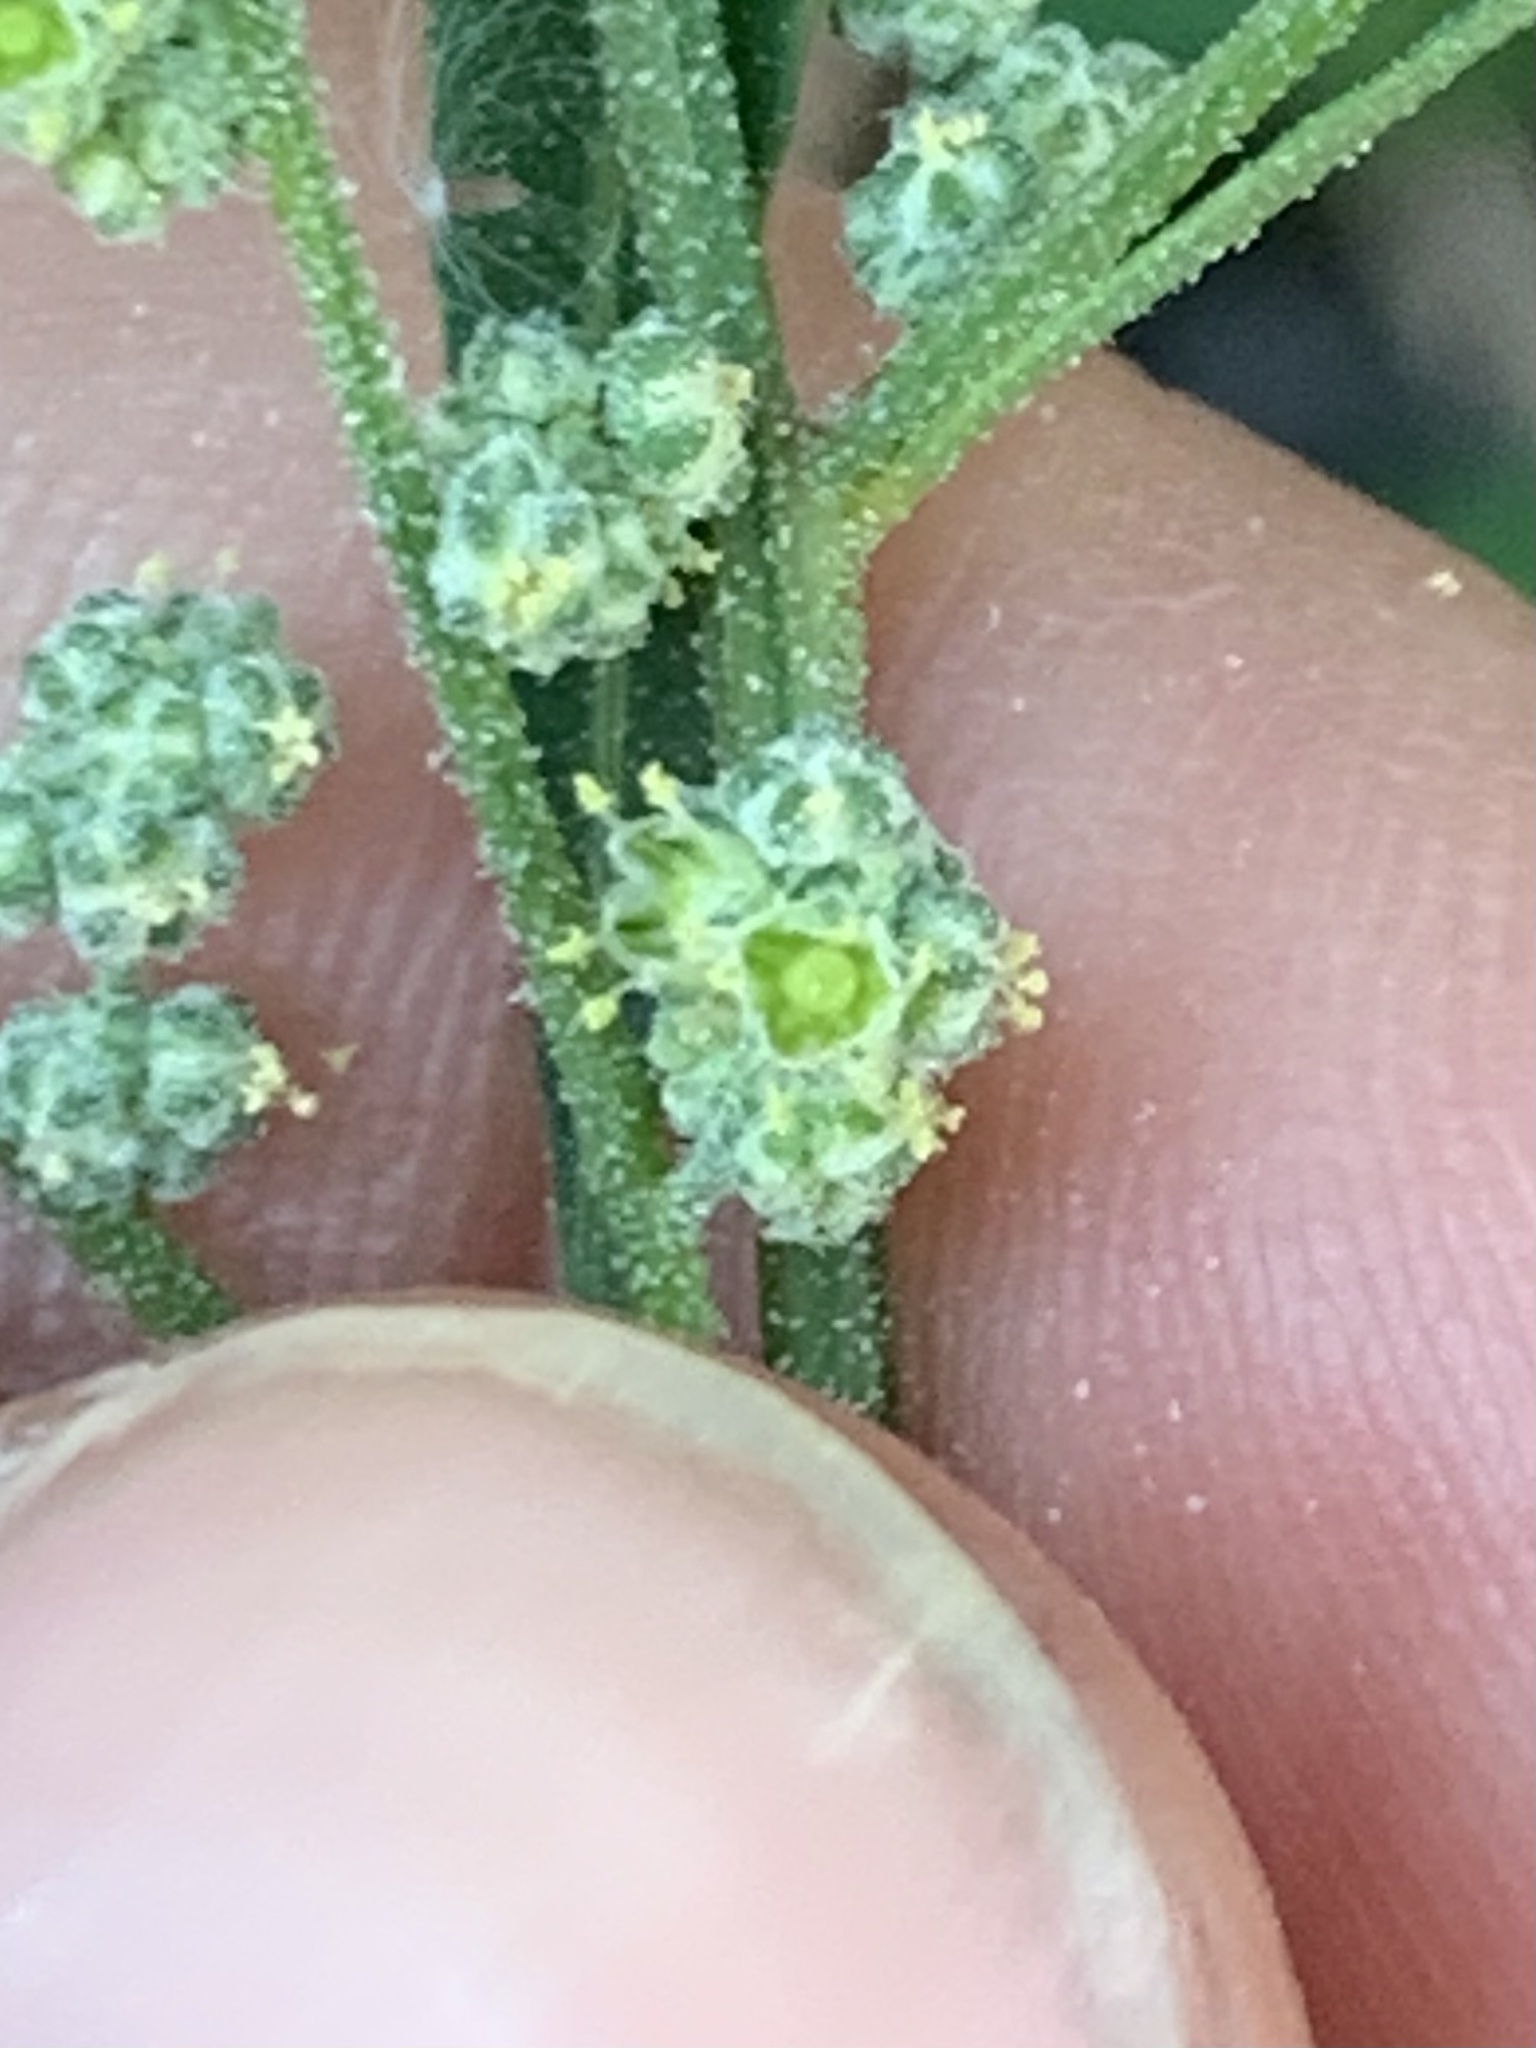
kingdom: Plantae
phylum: Tracheophyta
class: Magnoliopsida
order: Caryophyllales
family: Amaranthaceae
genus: Chenopodium
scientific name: Chenopodium album
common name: Fat-hen
